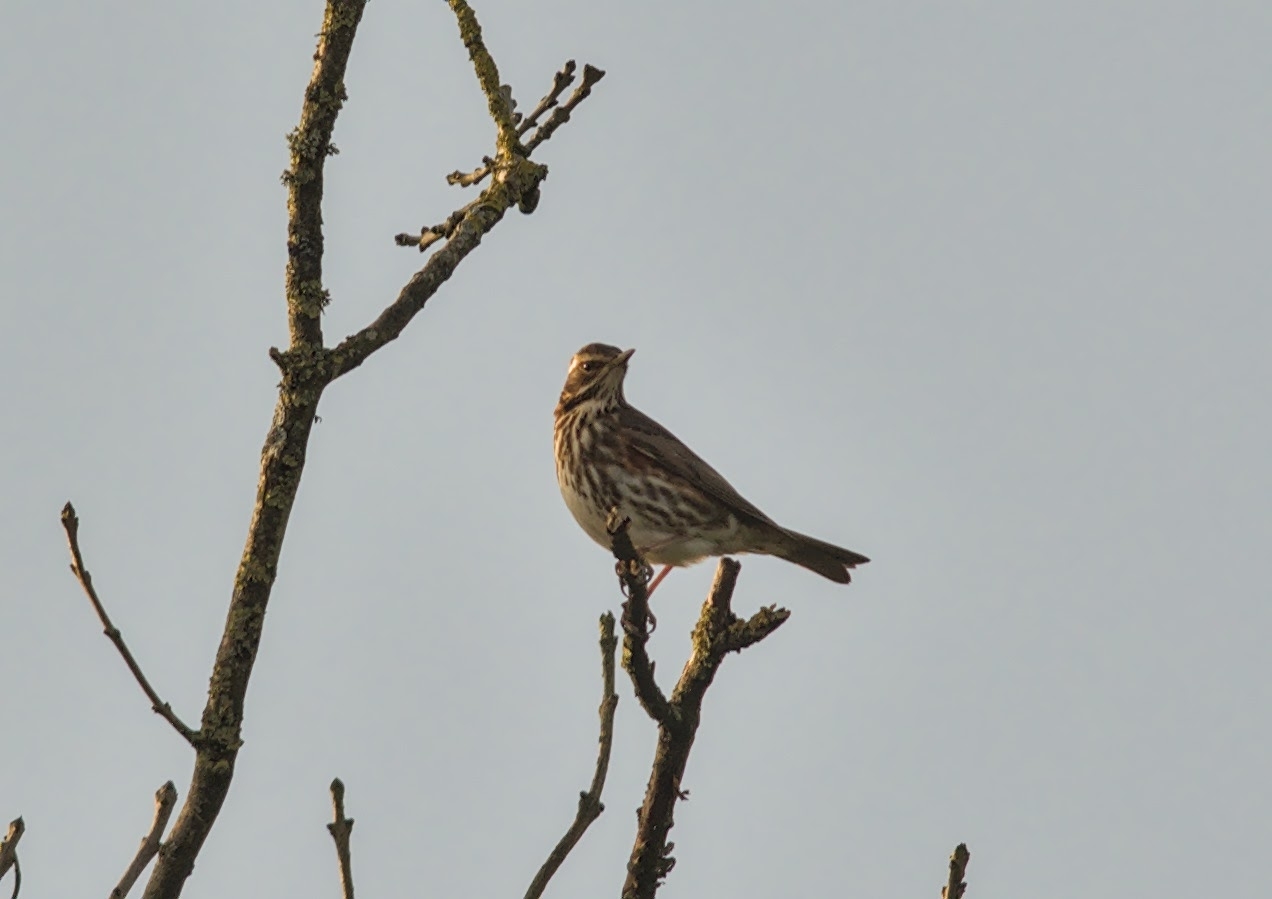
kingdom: Animalia
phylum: Chordata
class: Aves
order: Passeriformes
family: Turdidae
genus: Turdus
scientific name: Turdus iliacus
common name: Redwing
